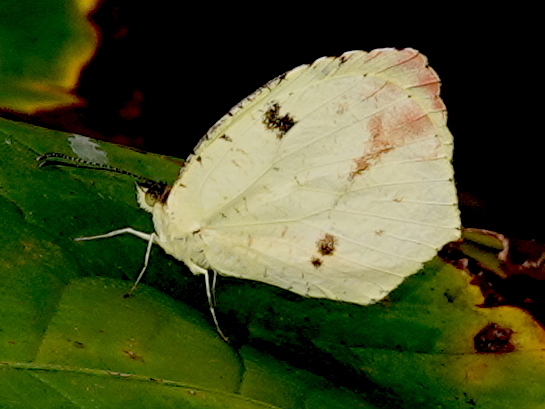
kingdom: Animalia
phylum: Arthropoda
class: Insecta
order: Lepidoptera
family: Pieridae
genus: Abaeis
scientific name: Abaeis
